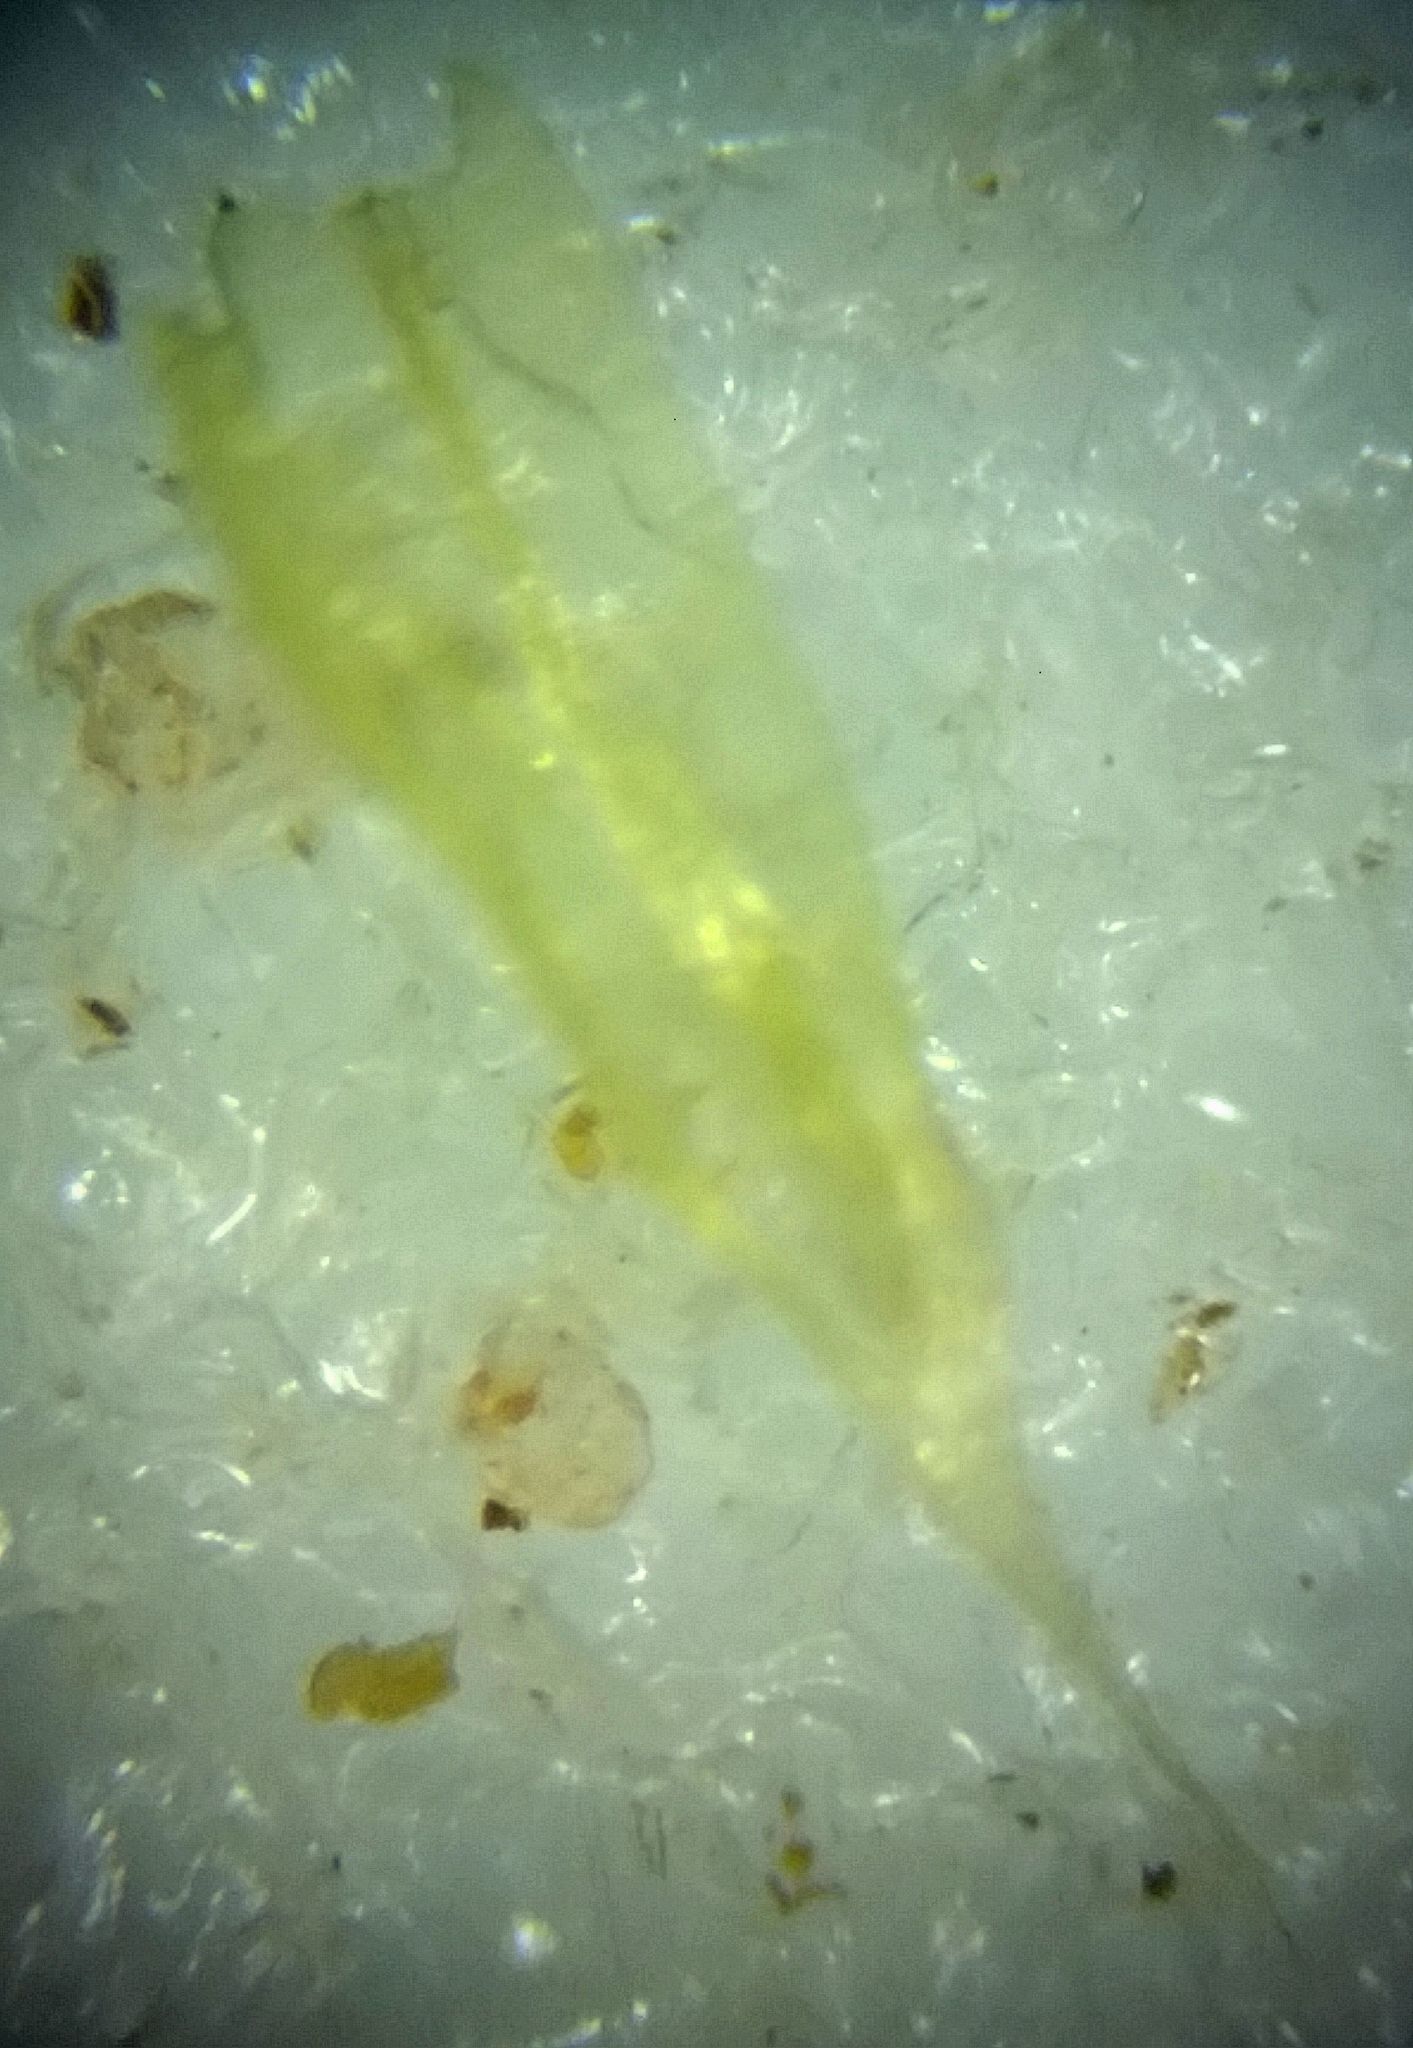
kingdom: Plantae
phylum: Bryophyta
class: Bryopsida
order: Hypnales
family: Brachytheciaceae
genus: Brachythecium
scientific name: Brachythecium albicans
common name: Whitish ragged moss
